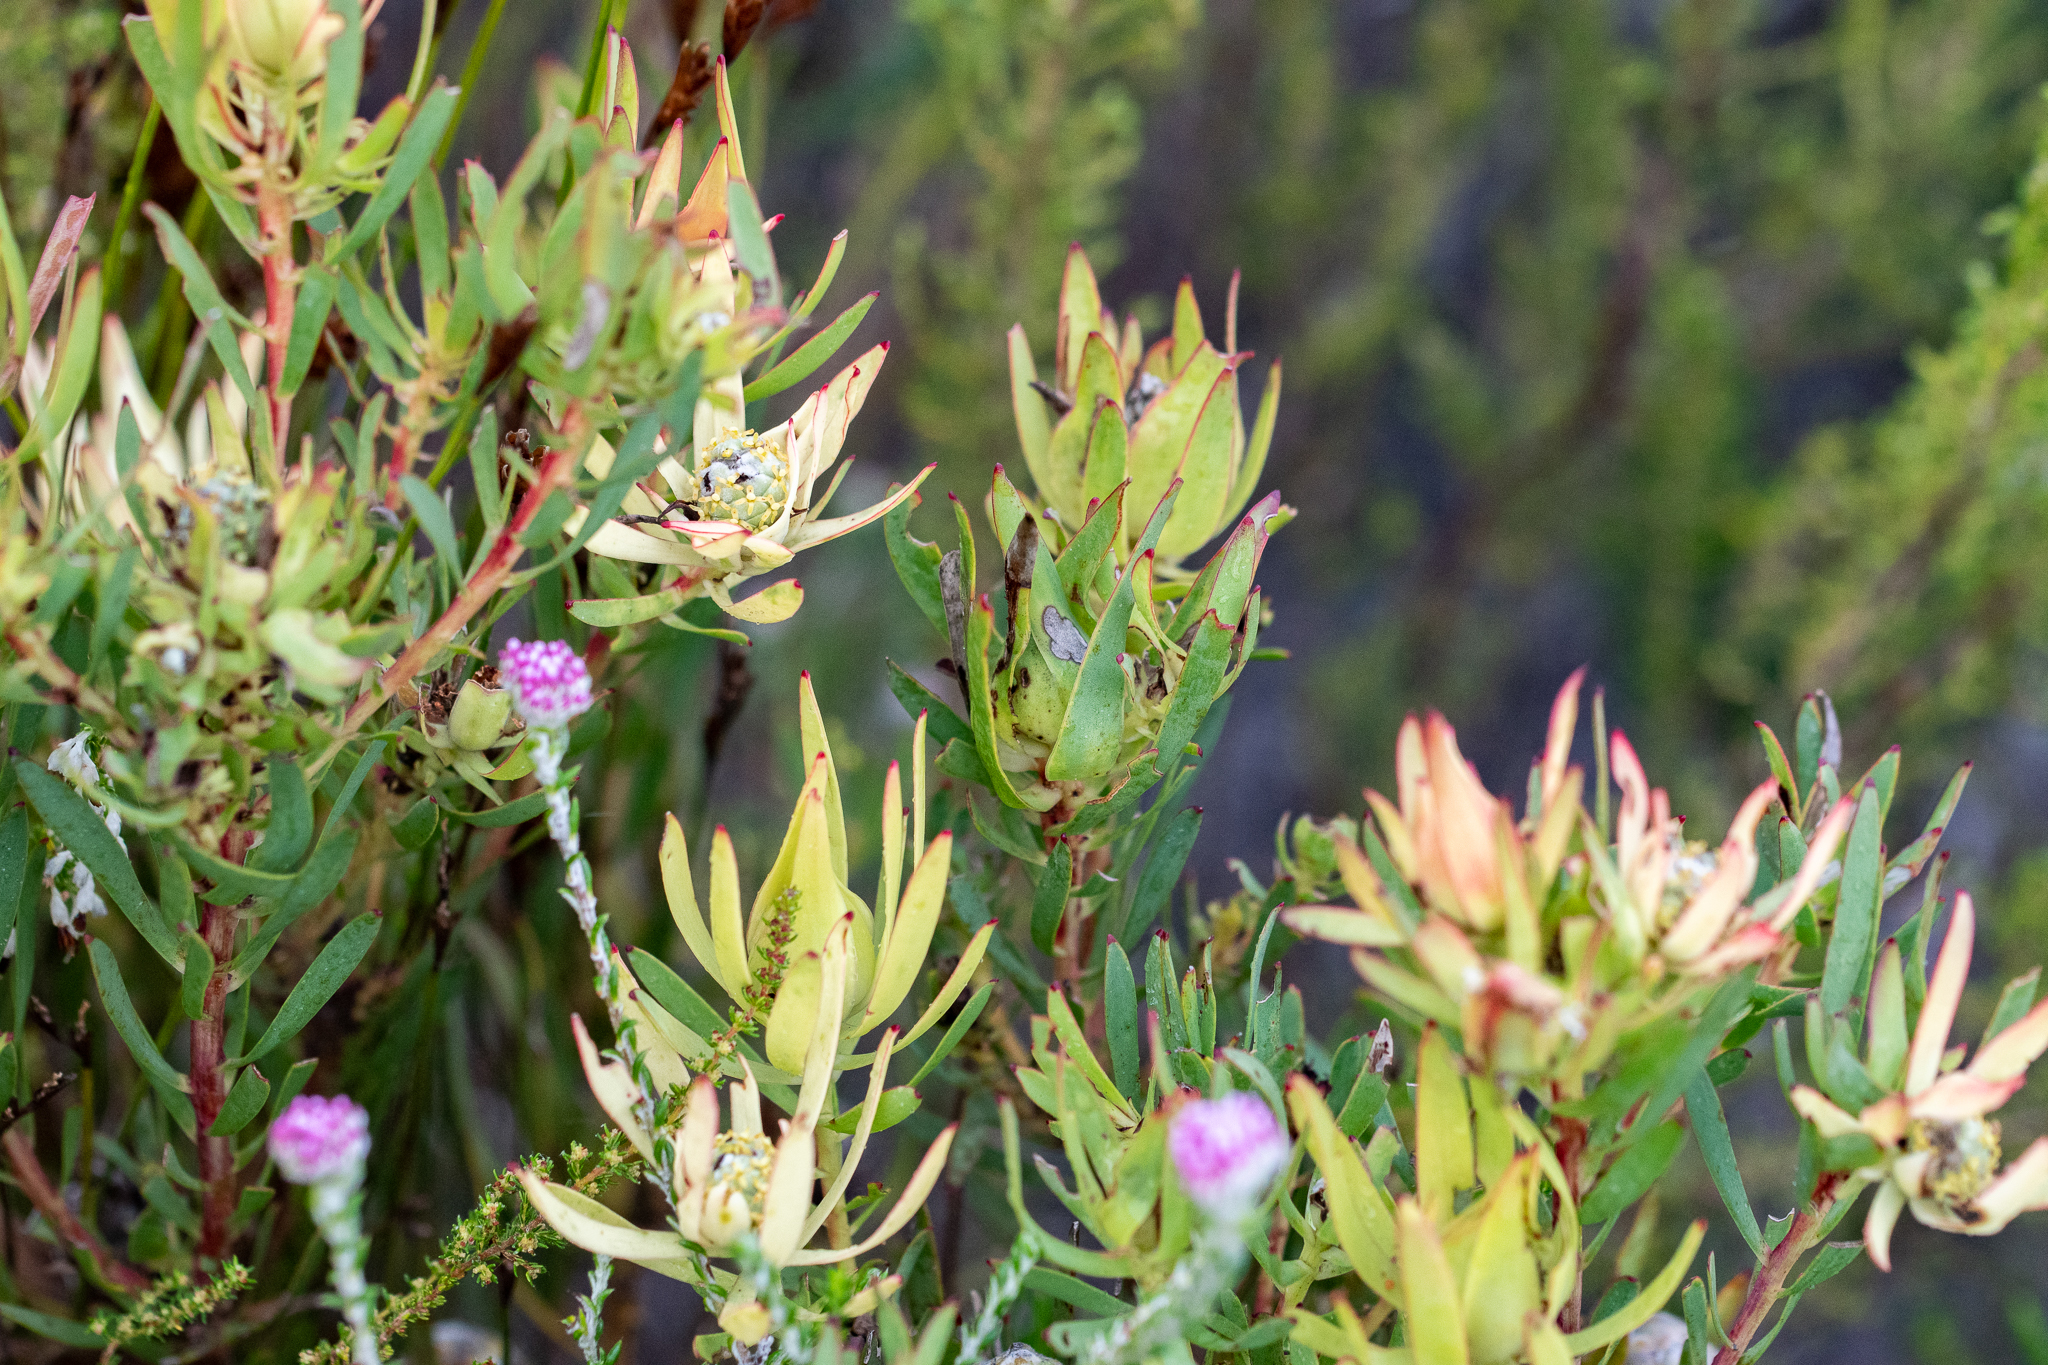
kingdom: Plantae
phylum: Tracheophyta
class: Magnoliopsida
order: Proteales
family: Proteaceae
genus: Leucadendron
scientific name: Leucadendron salignum
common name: Common sunshine conebush
